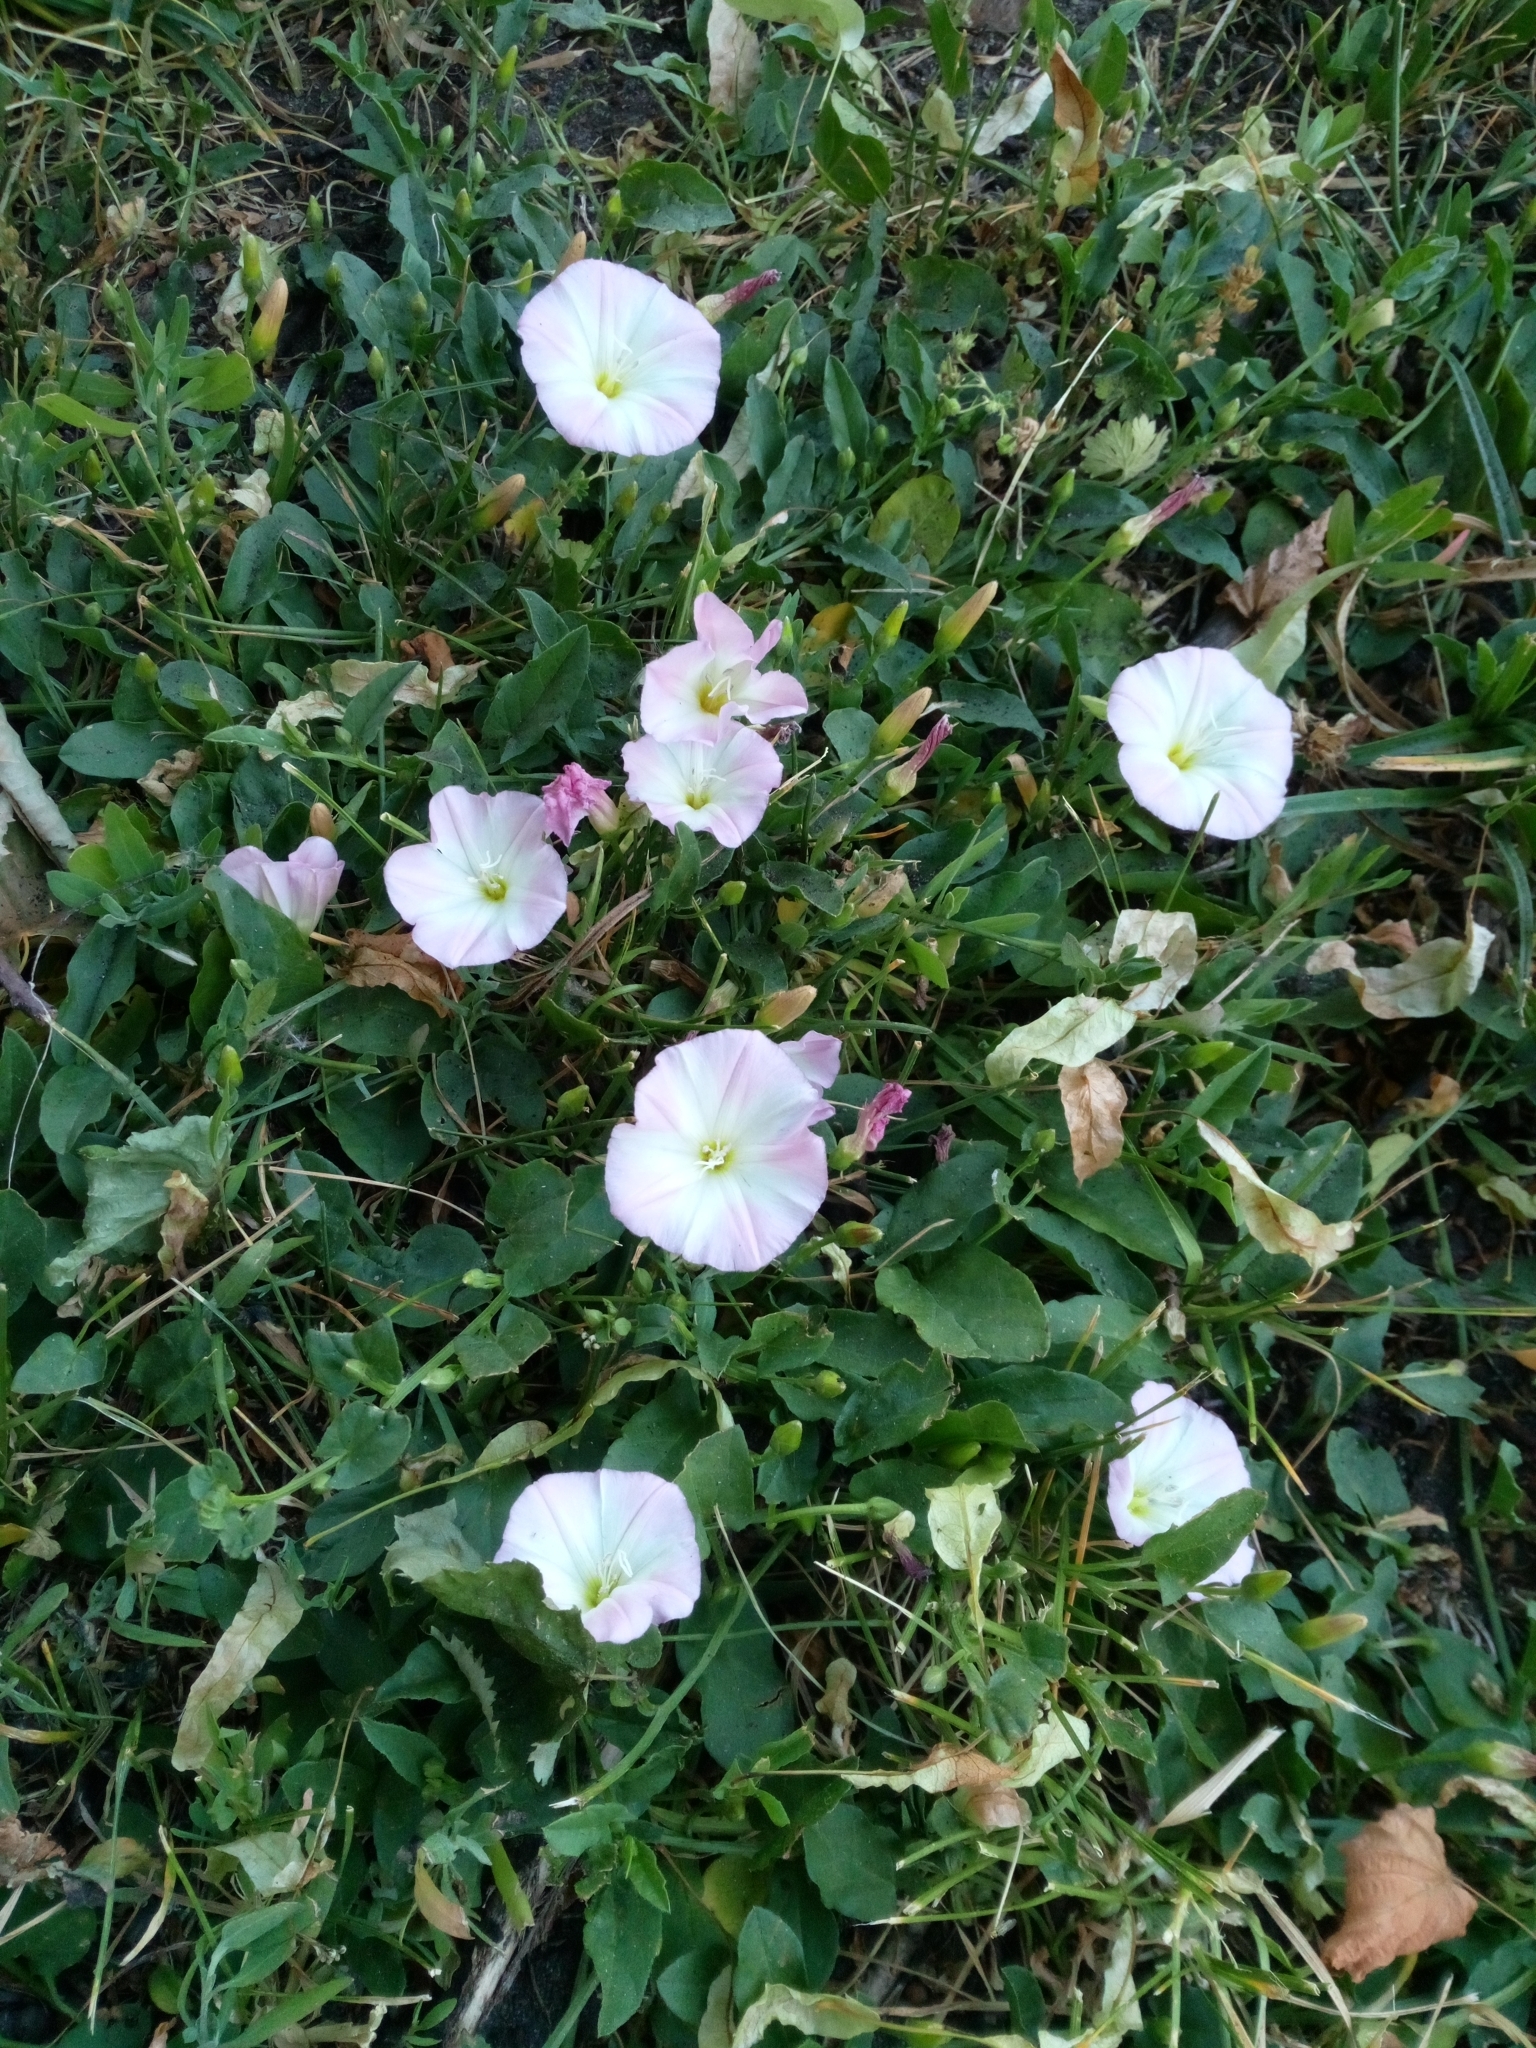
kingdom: Plantae
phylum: Tracheophyta
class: Magnoliopsida
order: Solanales
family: Convolvulaceae
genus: Convolvulus
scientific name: Convolvulus arvensis
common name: Field bindweed
